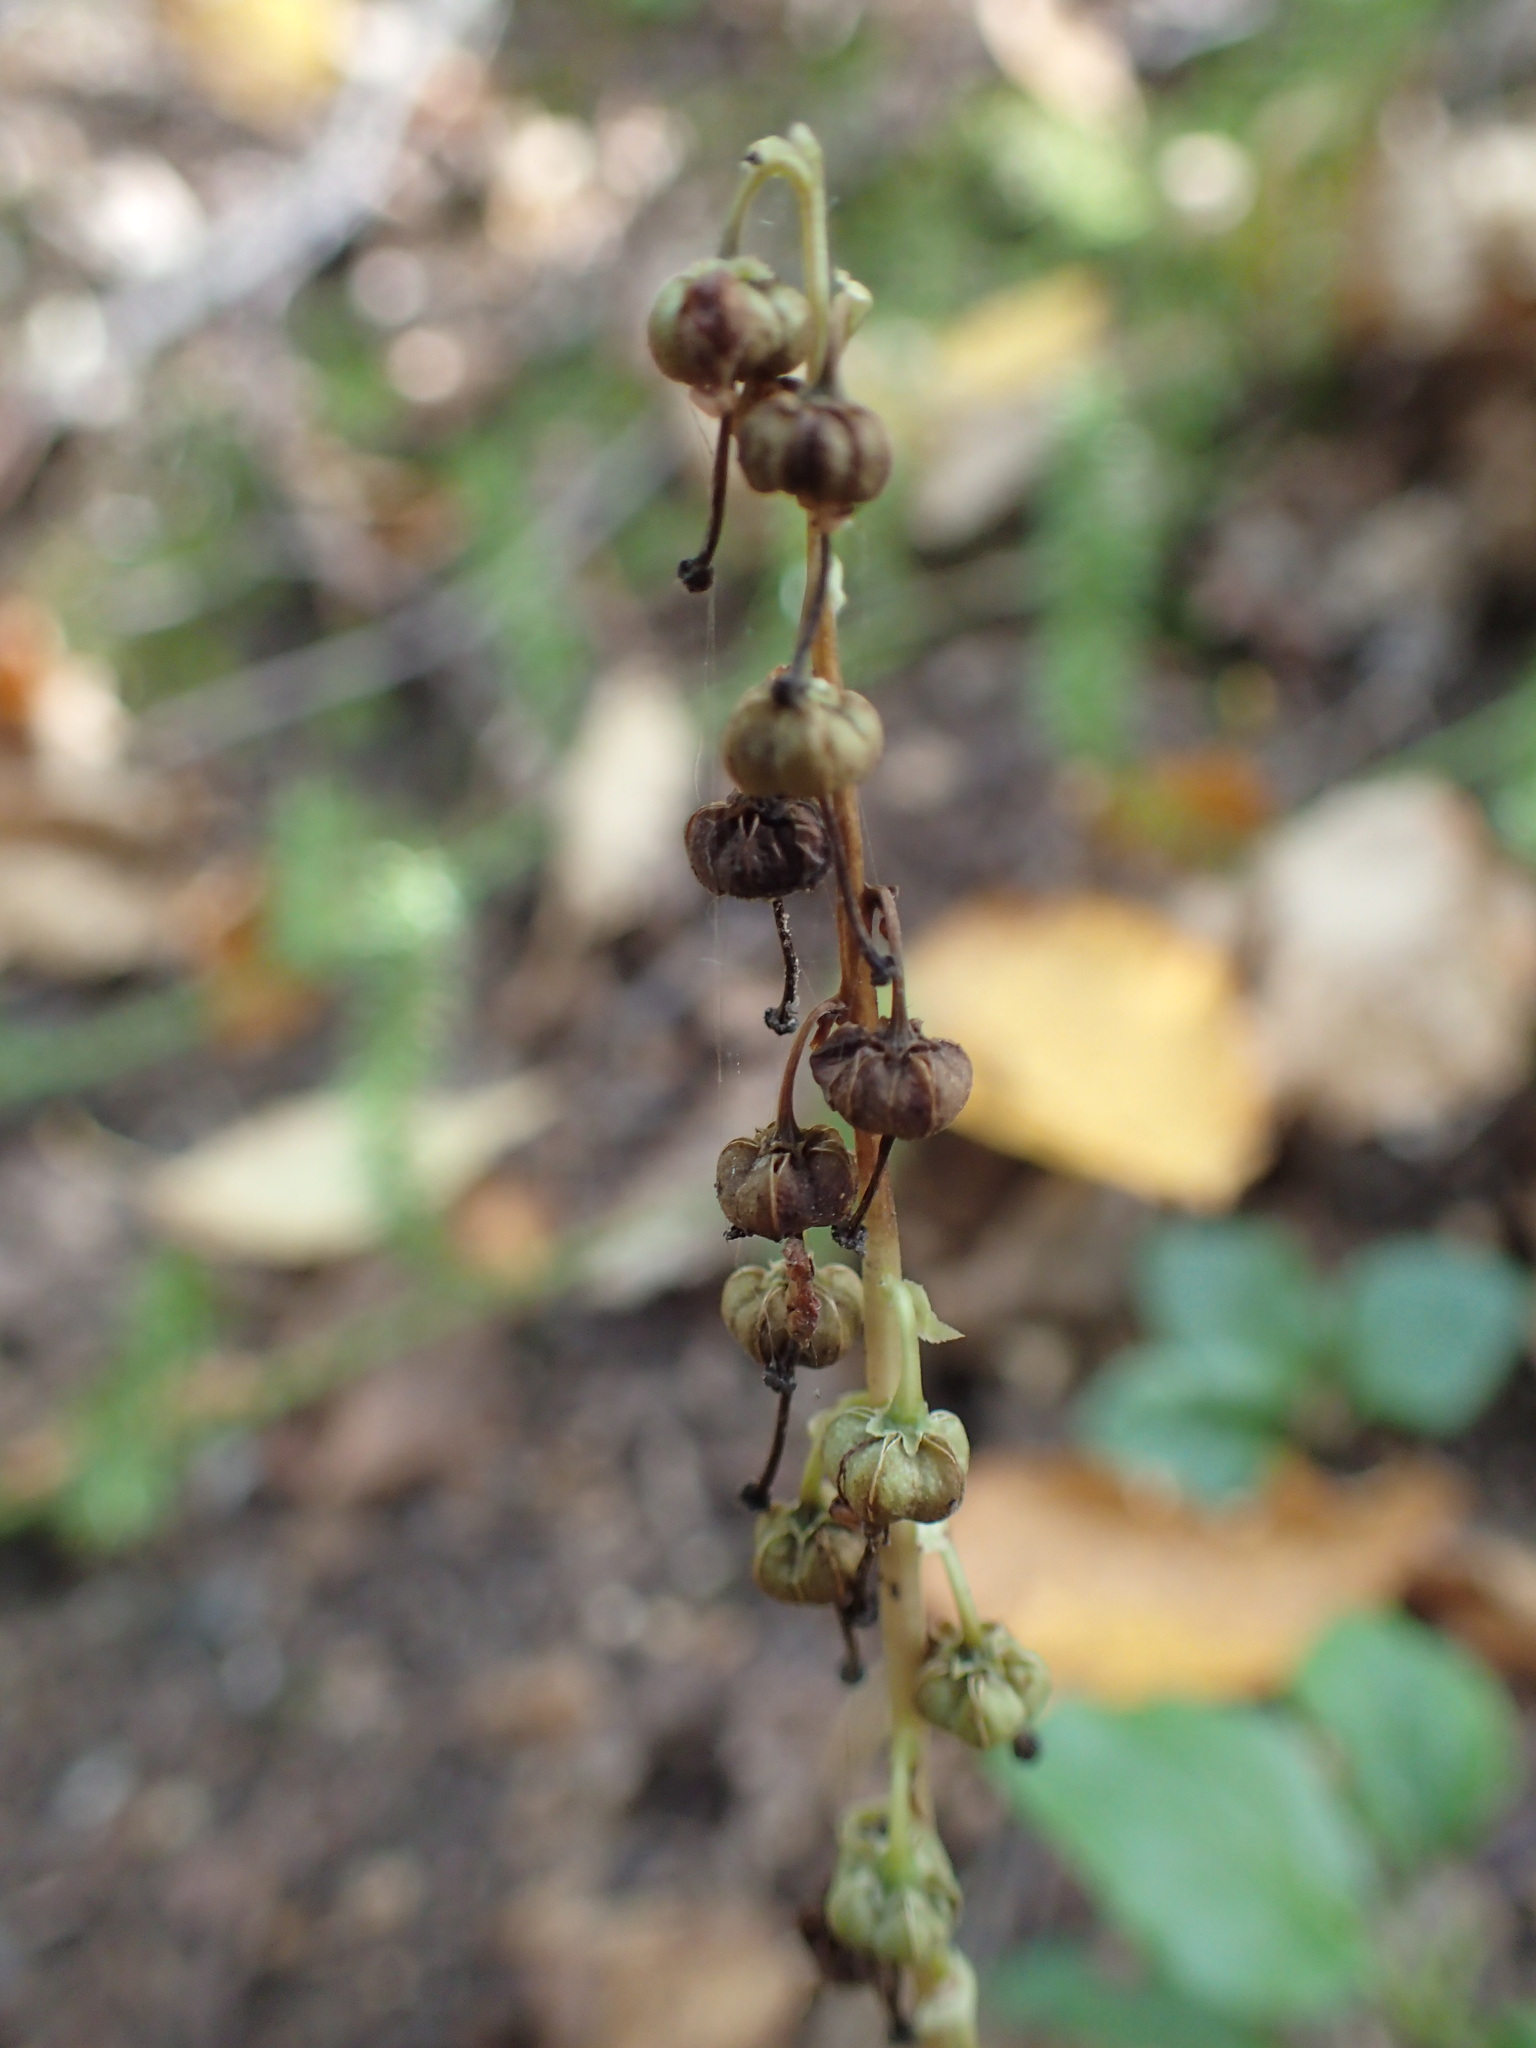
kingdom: Plantae
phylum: Tracheophyta
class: Magnoliopsida
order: Ericales
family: Ericaceae
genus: Orthilia
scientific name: Orthilia secunda
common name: One-sided orthilia
